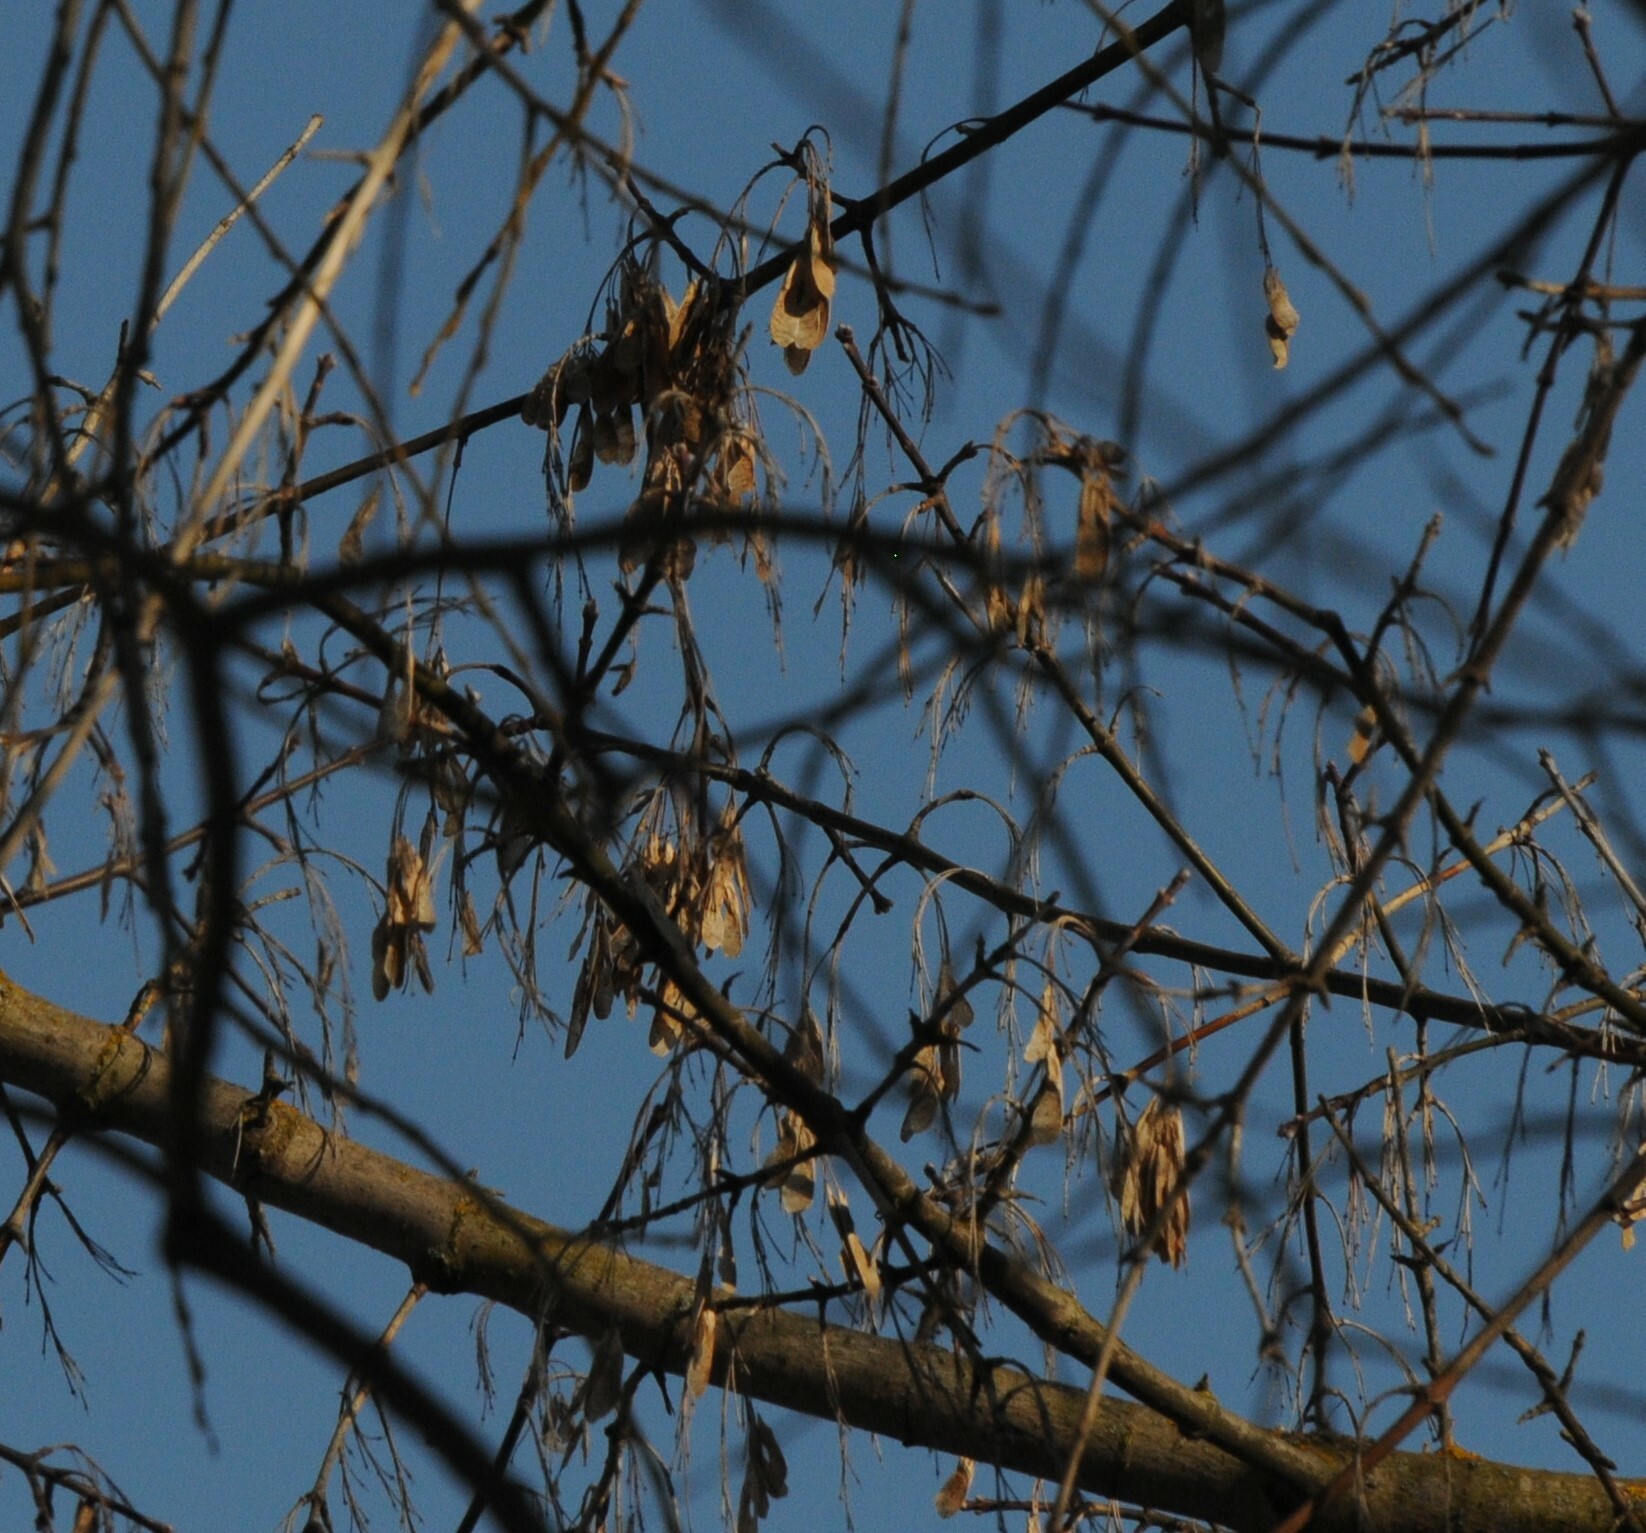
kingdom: Plantae
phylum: Tracheophyta
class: Magnoliopsida
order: Sapindales
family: Sapindaceae
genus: Acer
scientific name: Acer negundo
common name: Ashleaf maple
